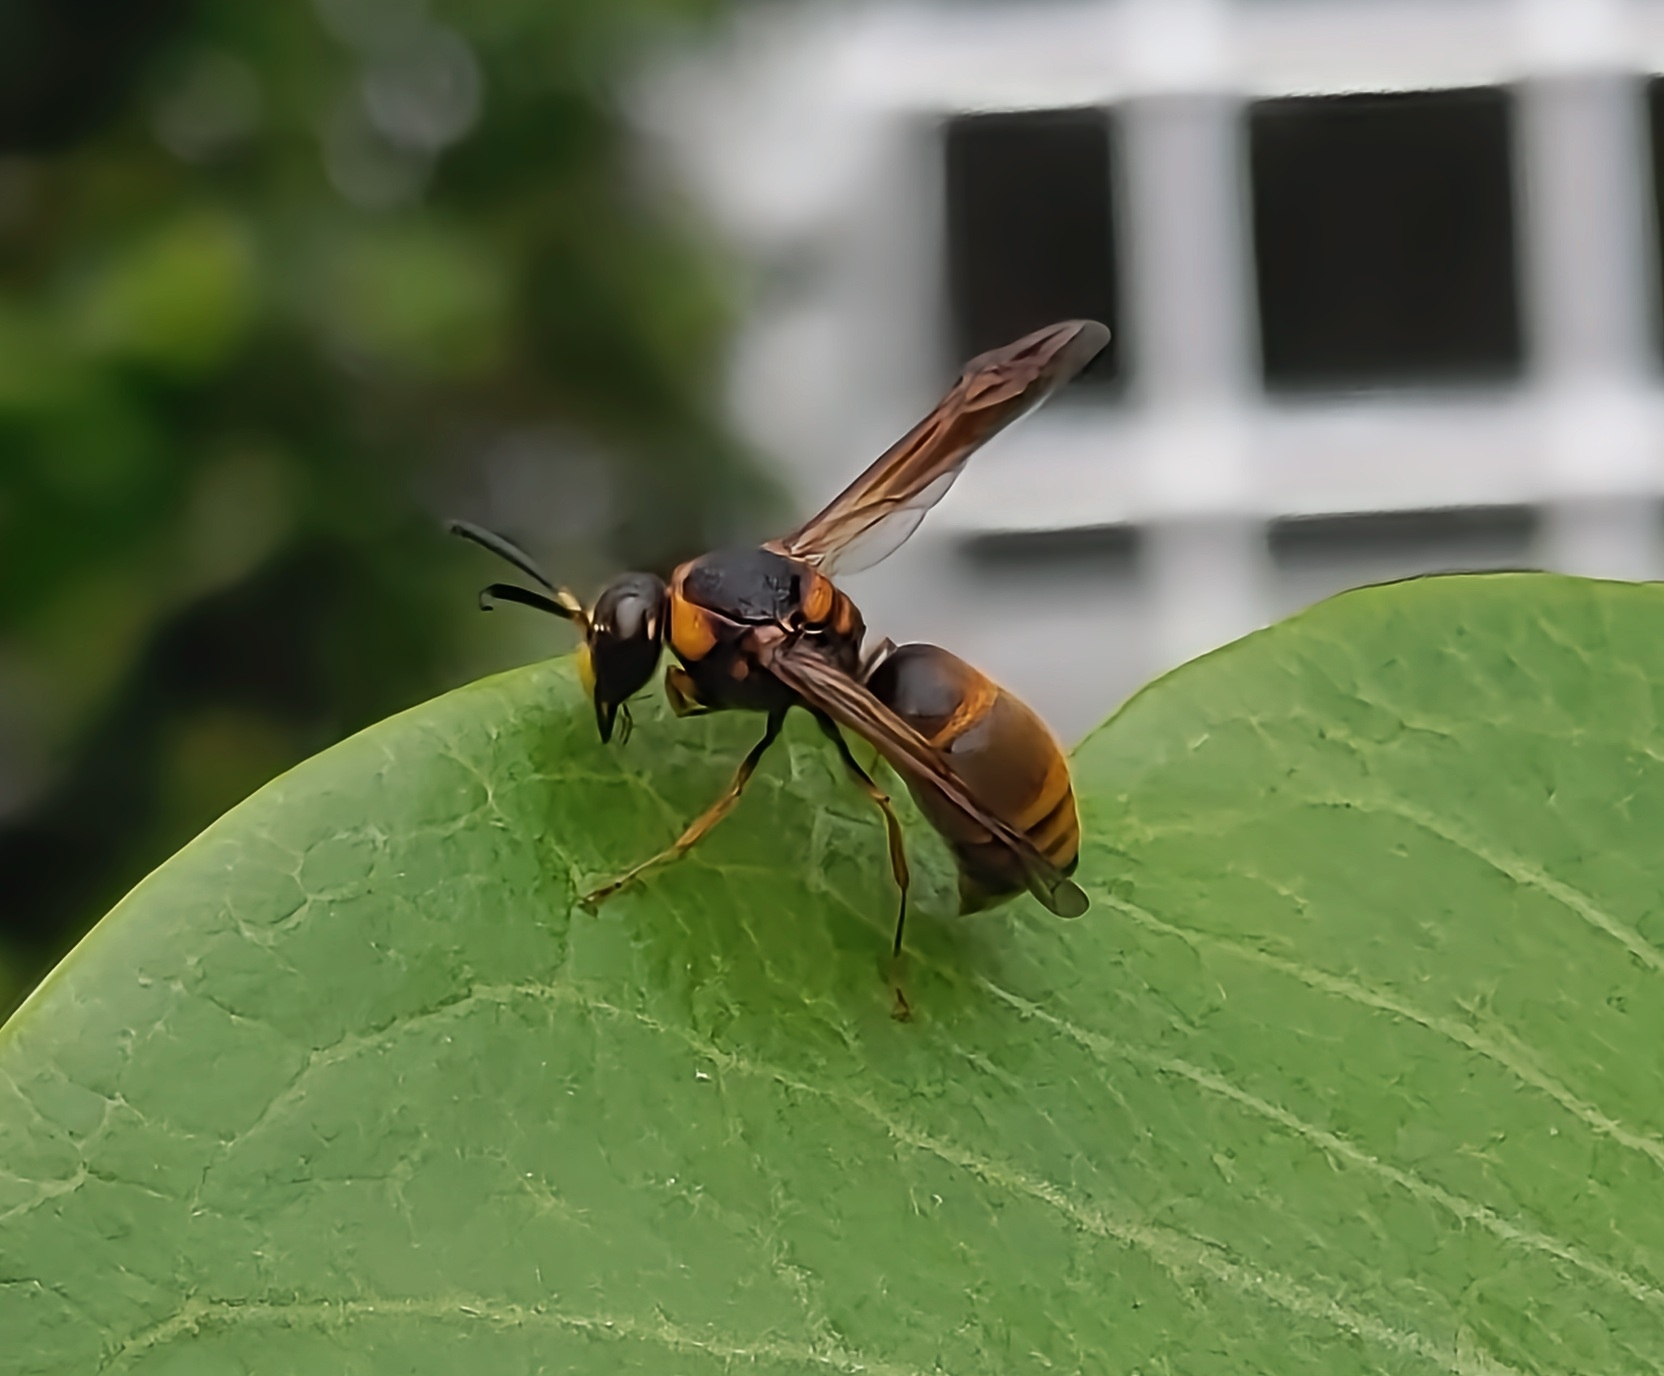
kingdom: Animalia
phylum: Arthropoda
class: Insecta
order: Hymenoptera
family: Eumenidae
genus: Anterhynchium
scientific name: Anterhynchium flavomarginatum
